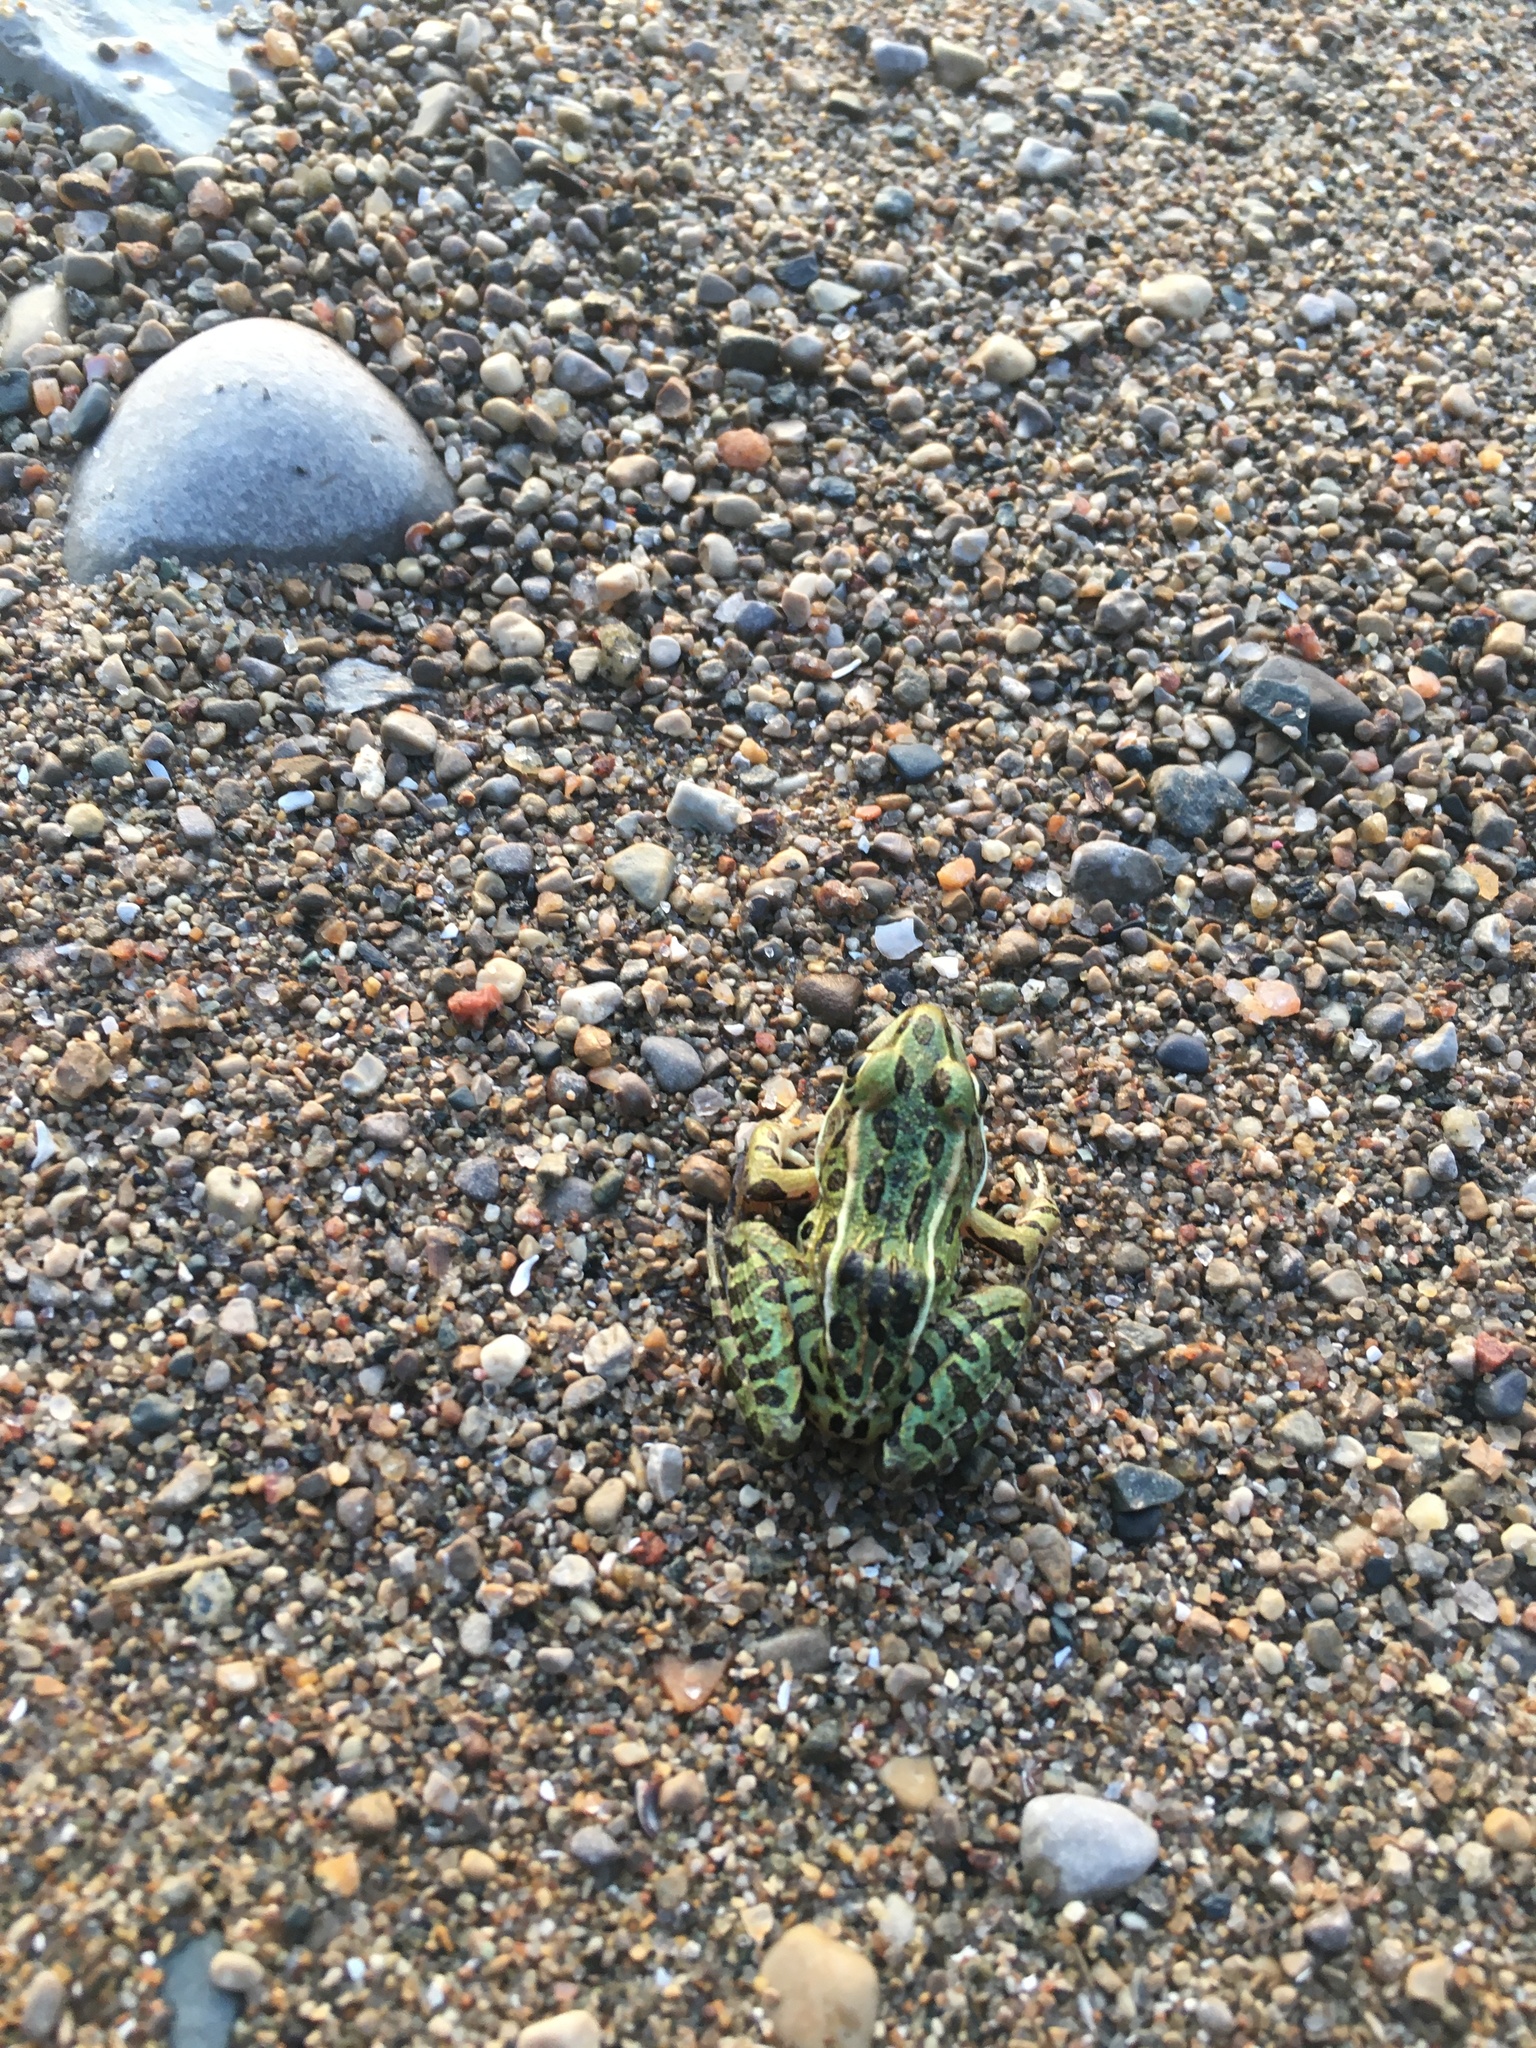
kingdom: Animalia
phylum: Chordata
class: Amphibia
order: Anura
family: Ranidae
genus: Lithobates
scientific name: Lithobates pipiens
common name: Northern leopard frog
